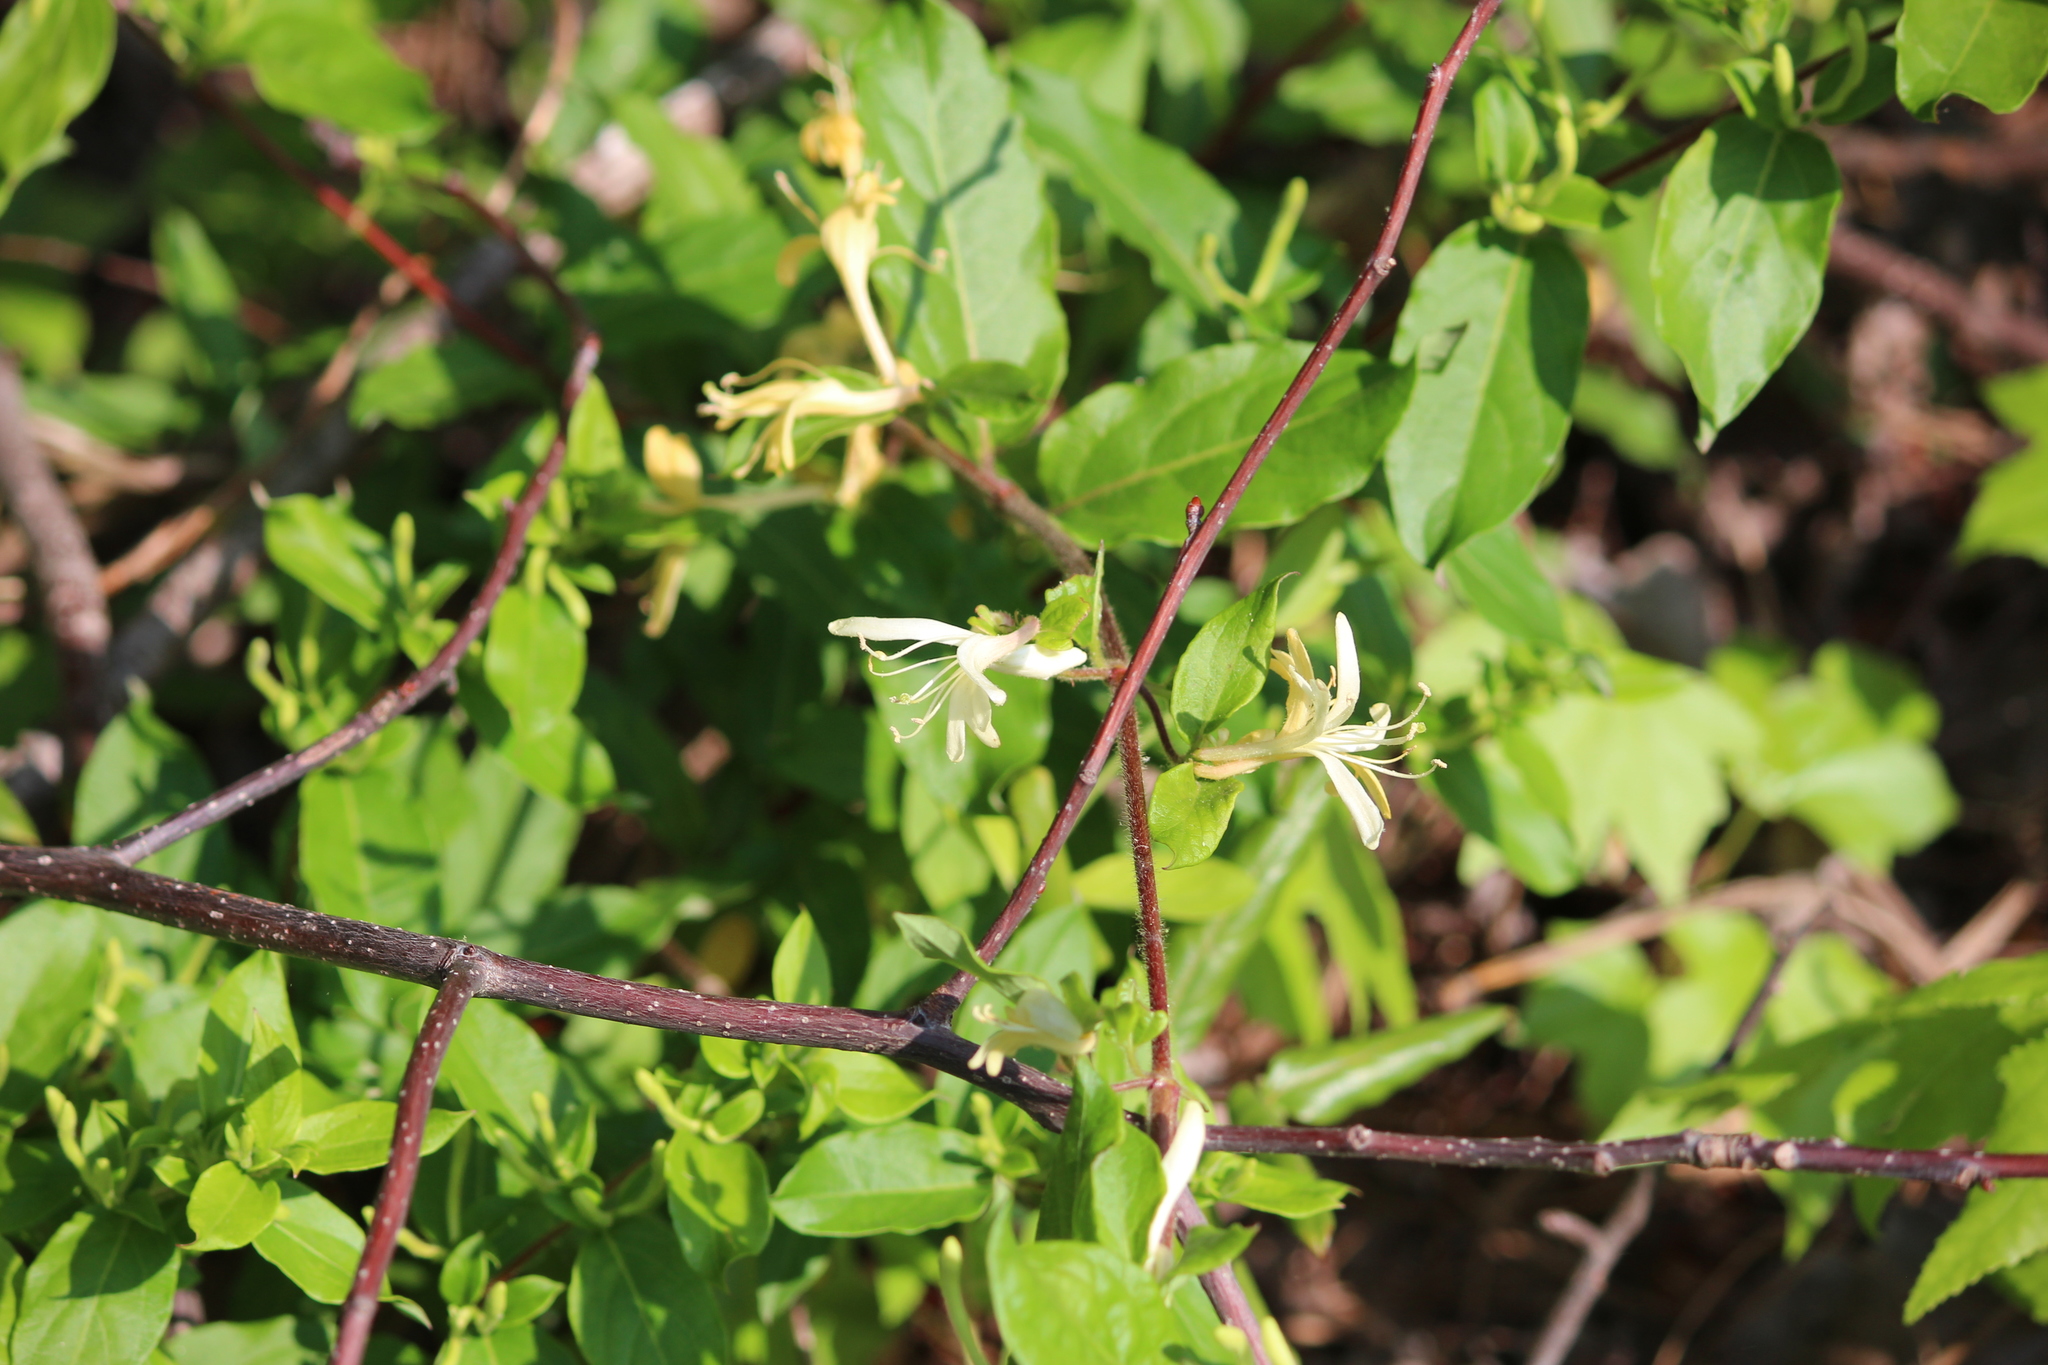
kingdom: Plantae
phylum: Tracheophyta
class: Magnoliopsida
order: Dipsacales
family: Caprifoliaceae
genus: Lonicera
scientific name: Lonicera japonica
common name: Japanese honeysuckle
